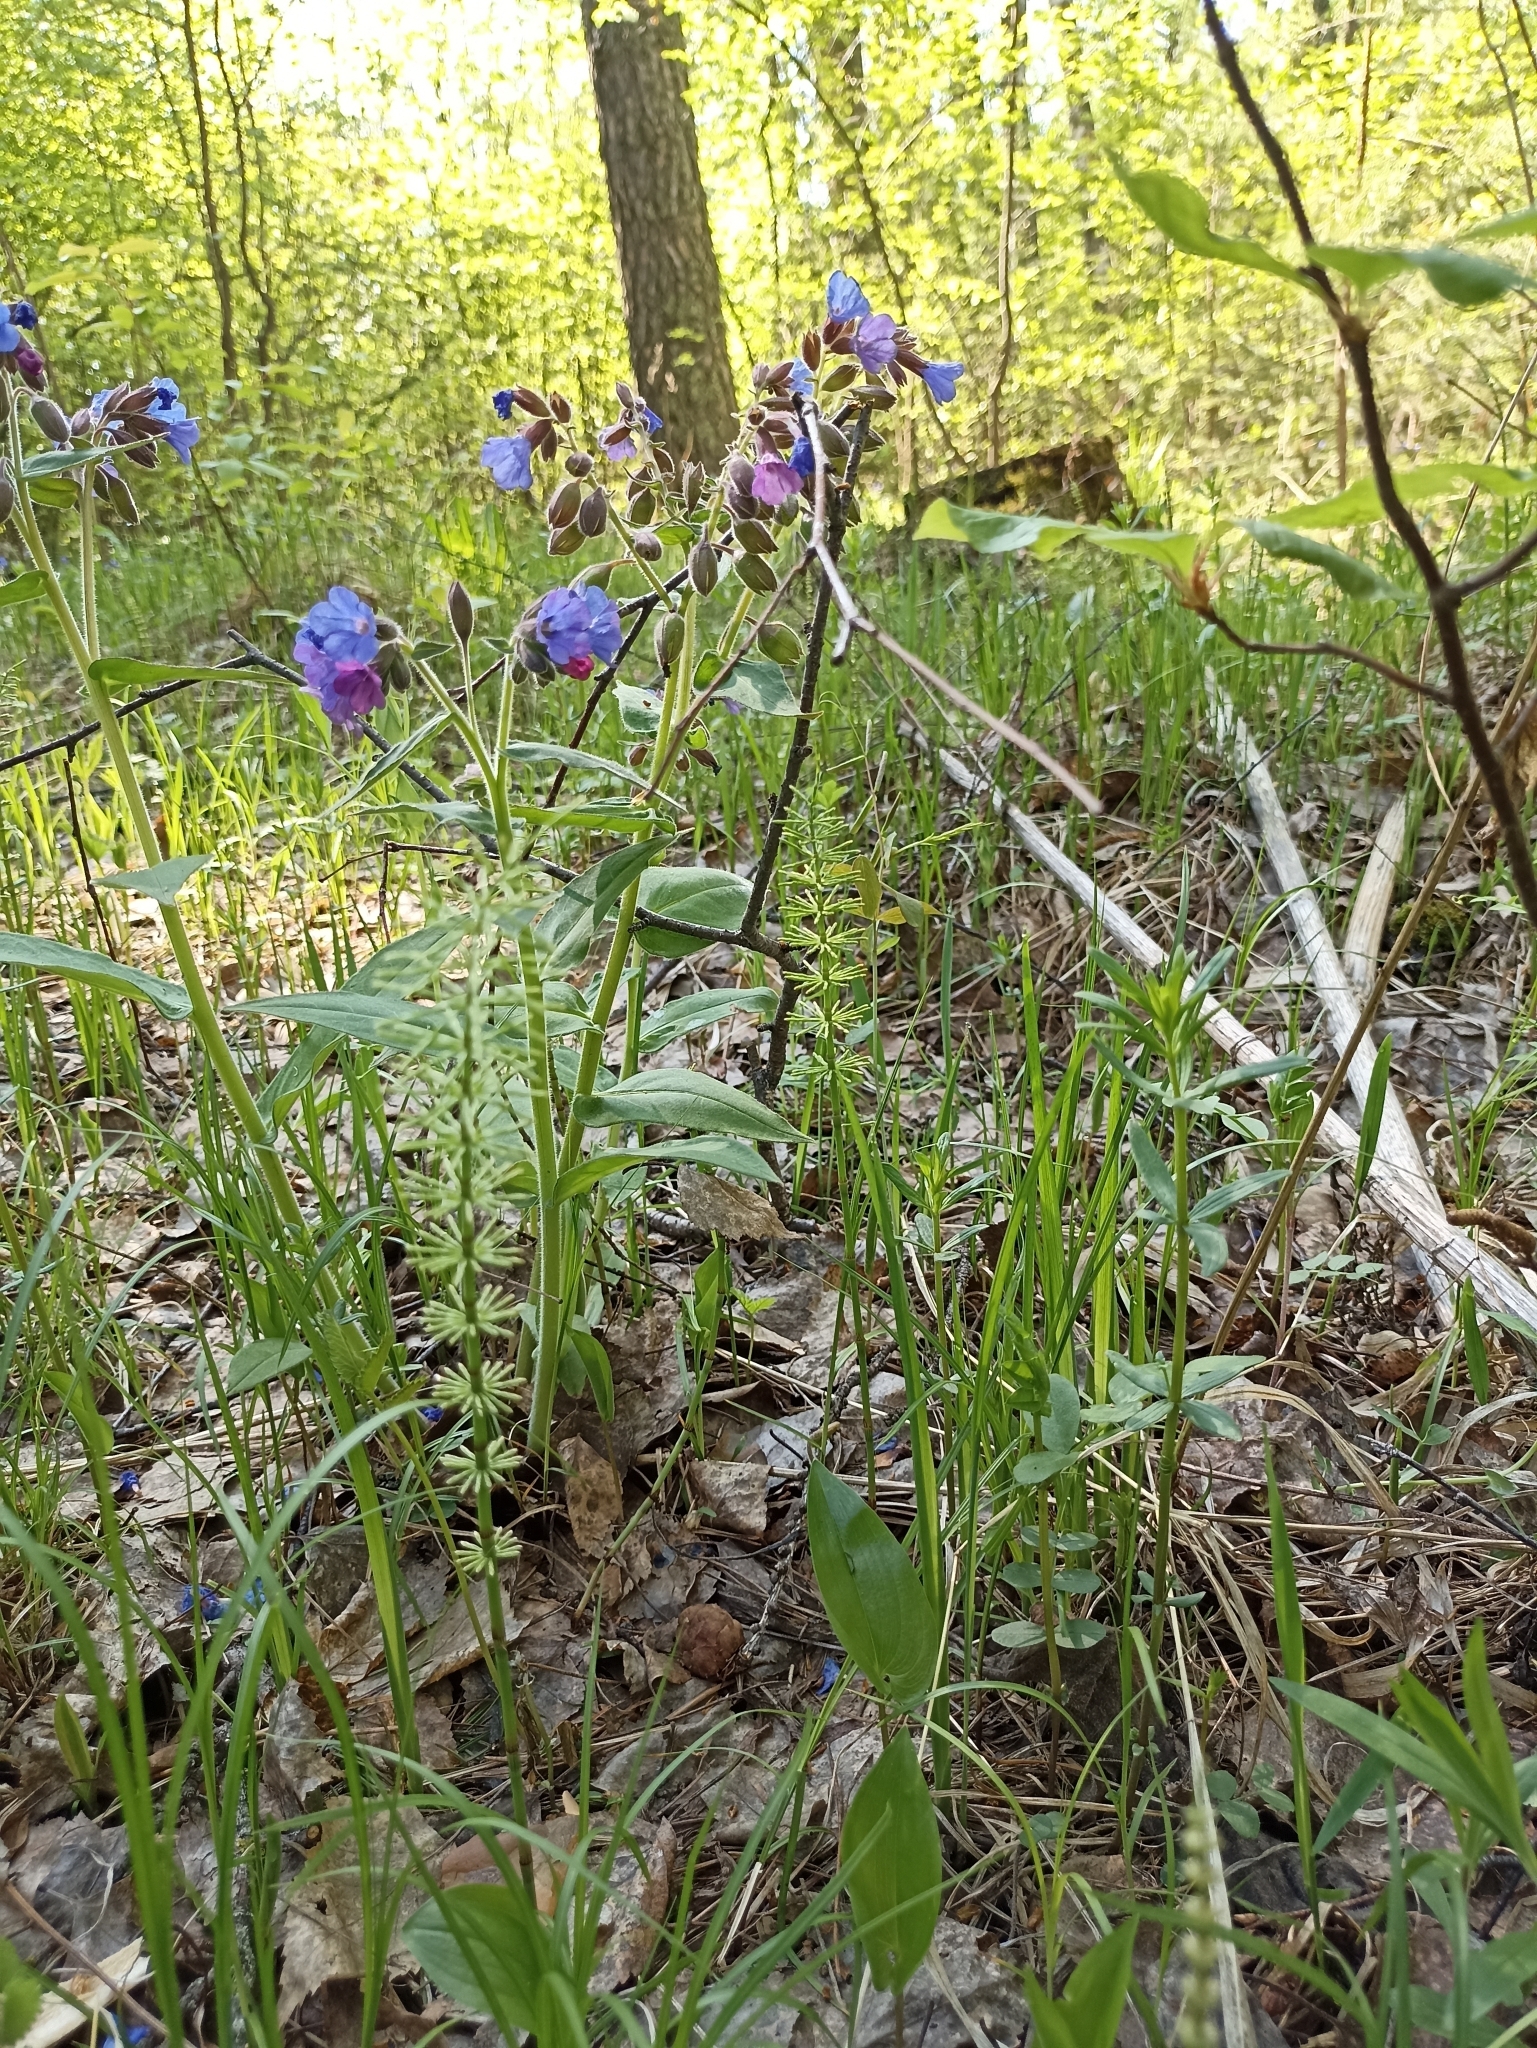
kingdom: Plantae
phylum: Tracheophyta
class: Polypodiopsida
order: Equisetales
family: Equisetaceae
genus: Equisetum
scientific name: Equisetum pratense
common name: Meadow horsetail
